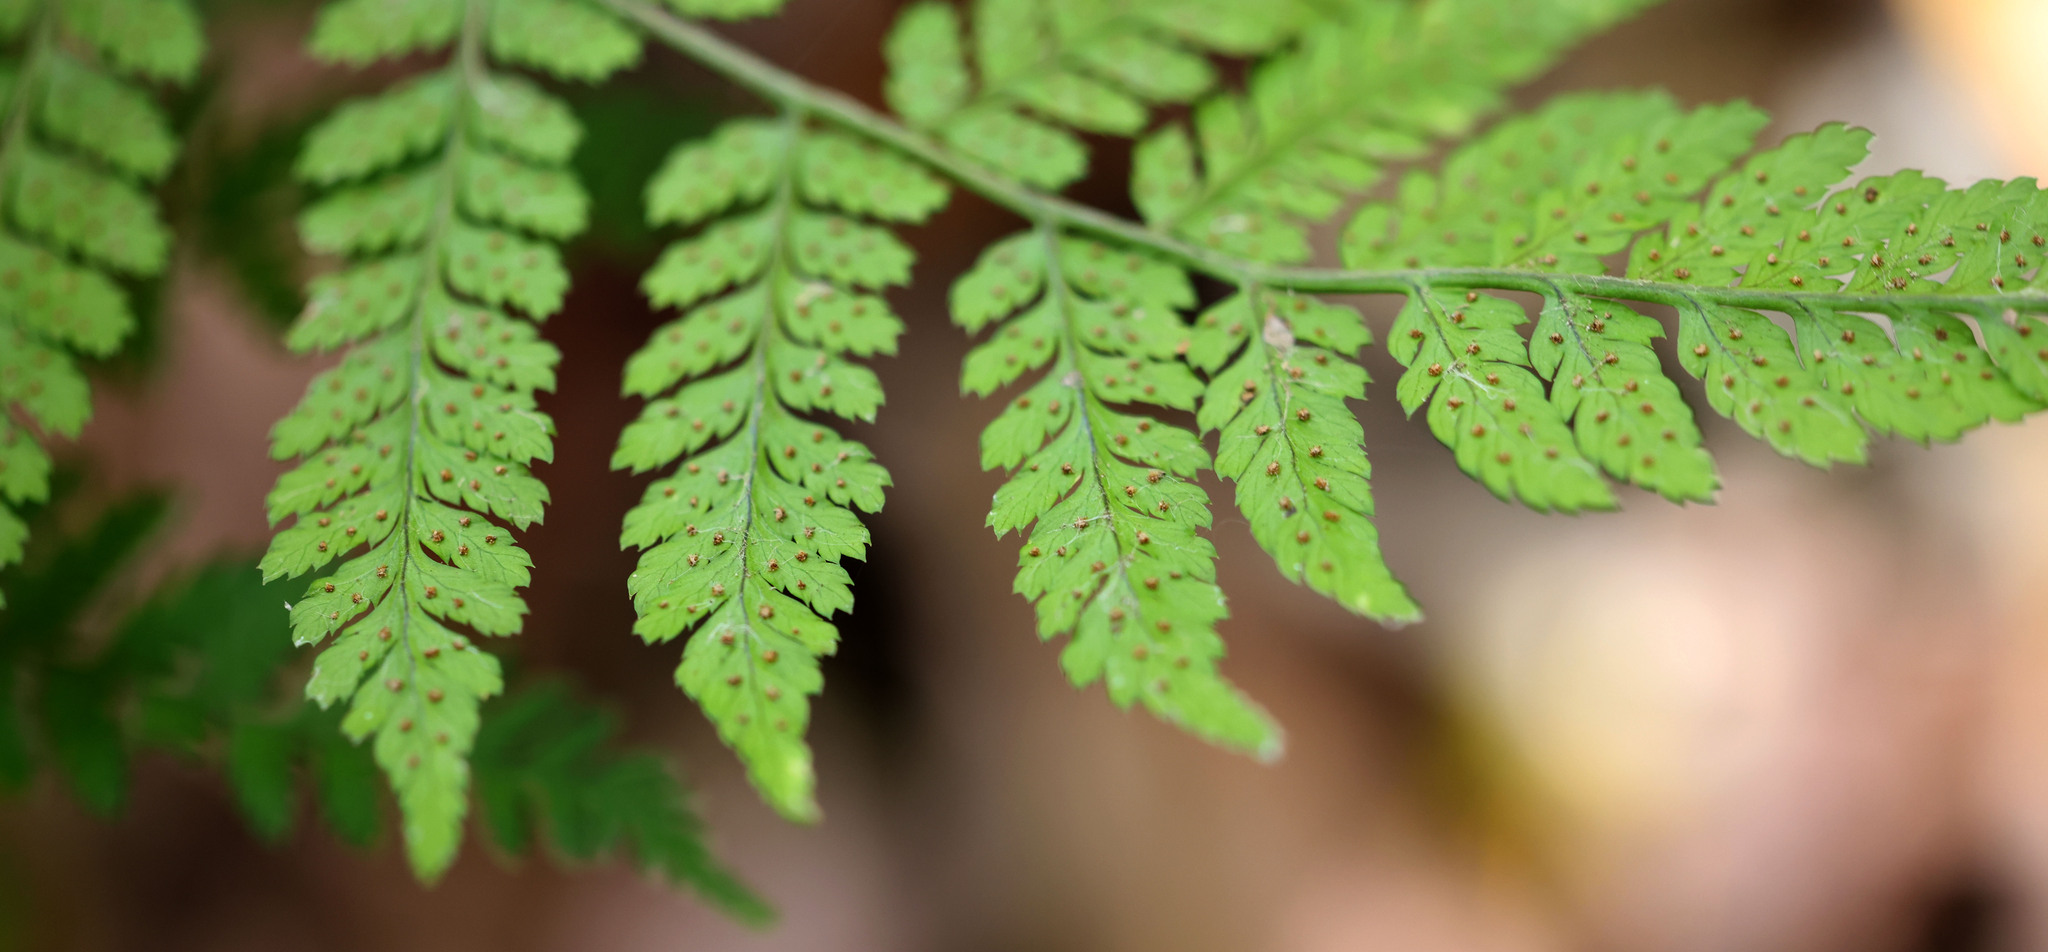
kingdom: Plantae
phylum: Tracheophyta
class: Polypodiopsida
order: Polypodiales
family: Dryopteridaceae
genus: Dryopteris
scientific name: Dryopteris intermedia
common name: Evergreen wood fern
